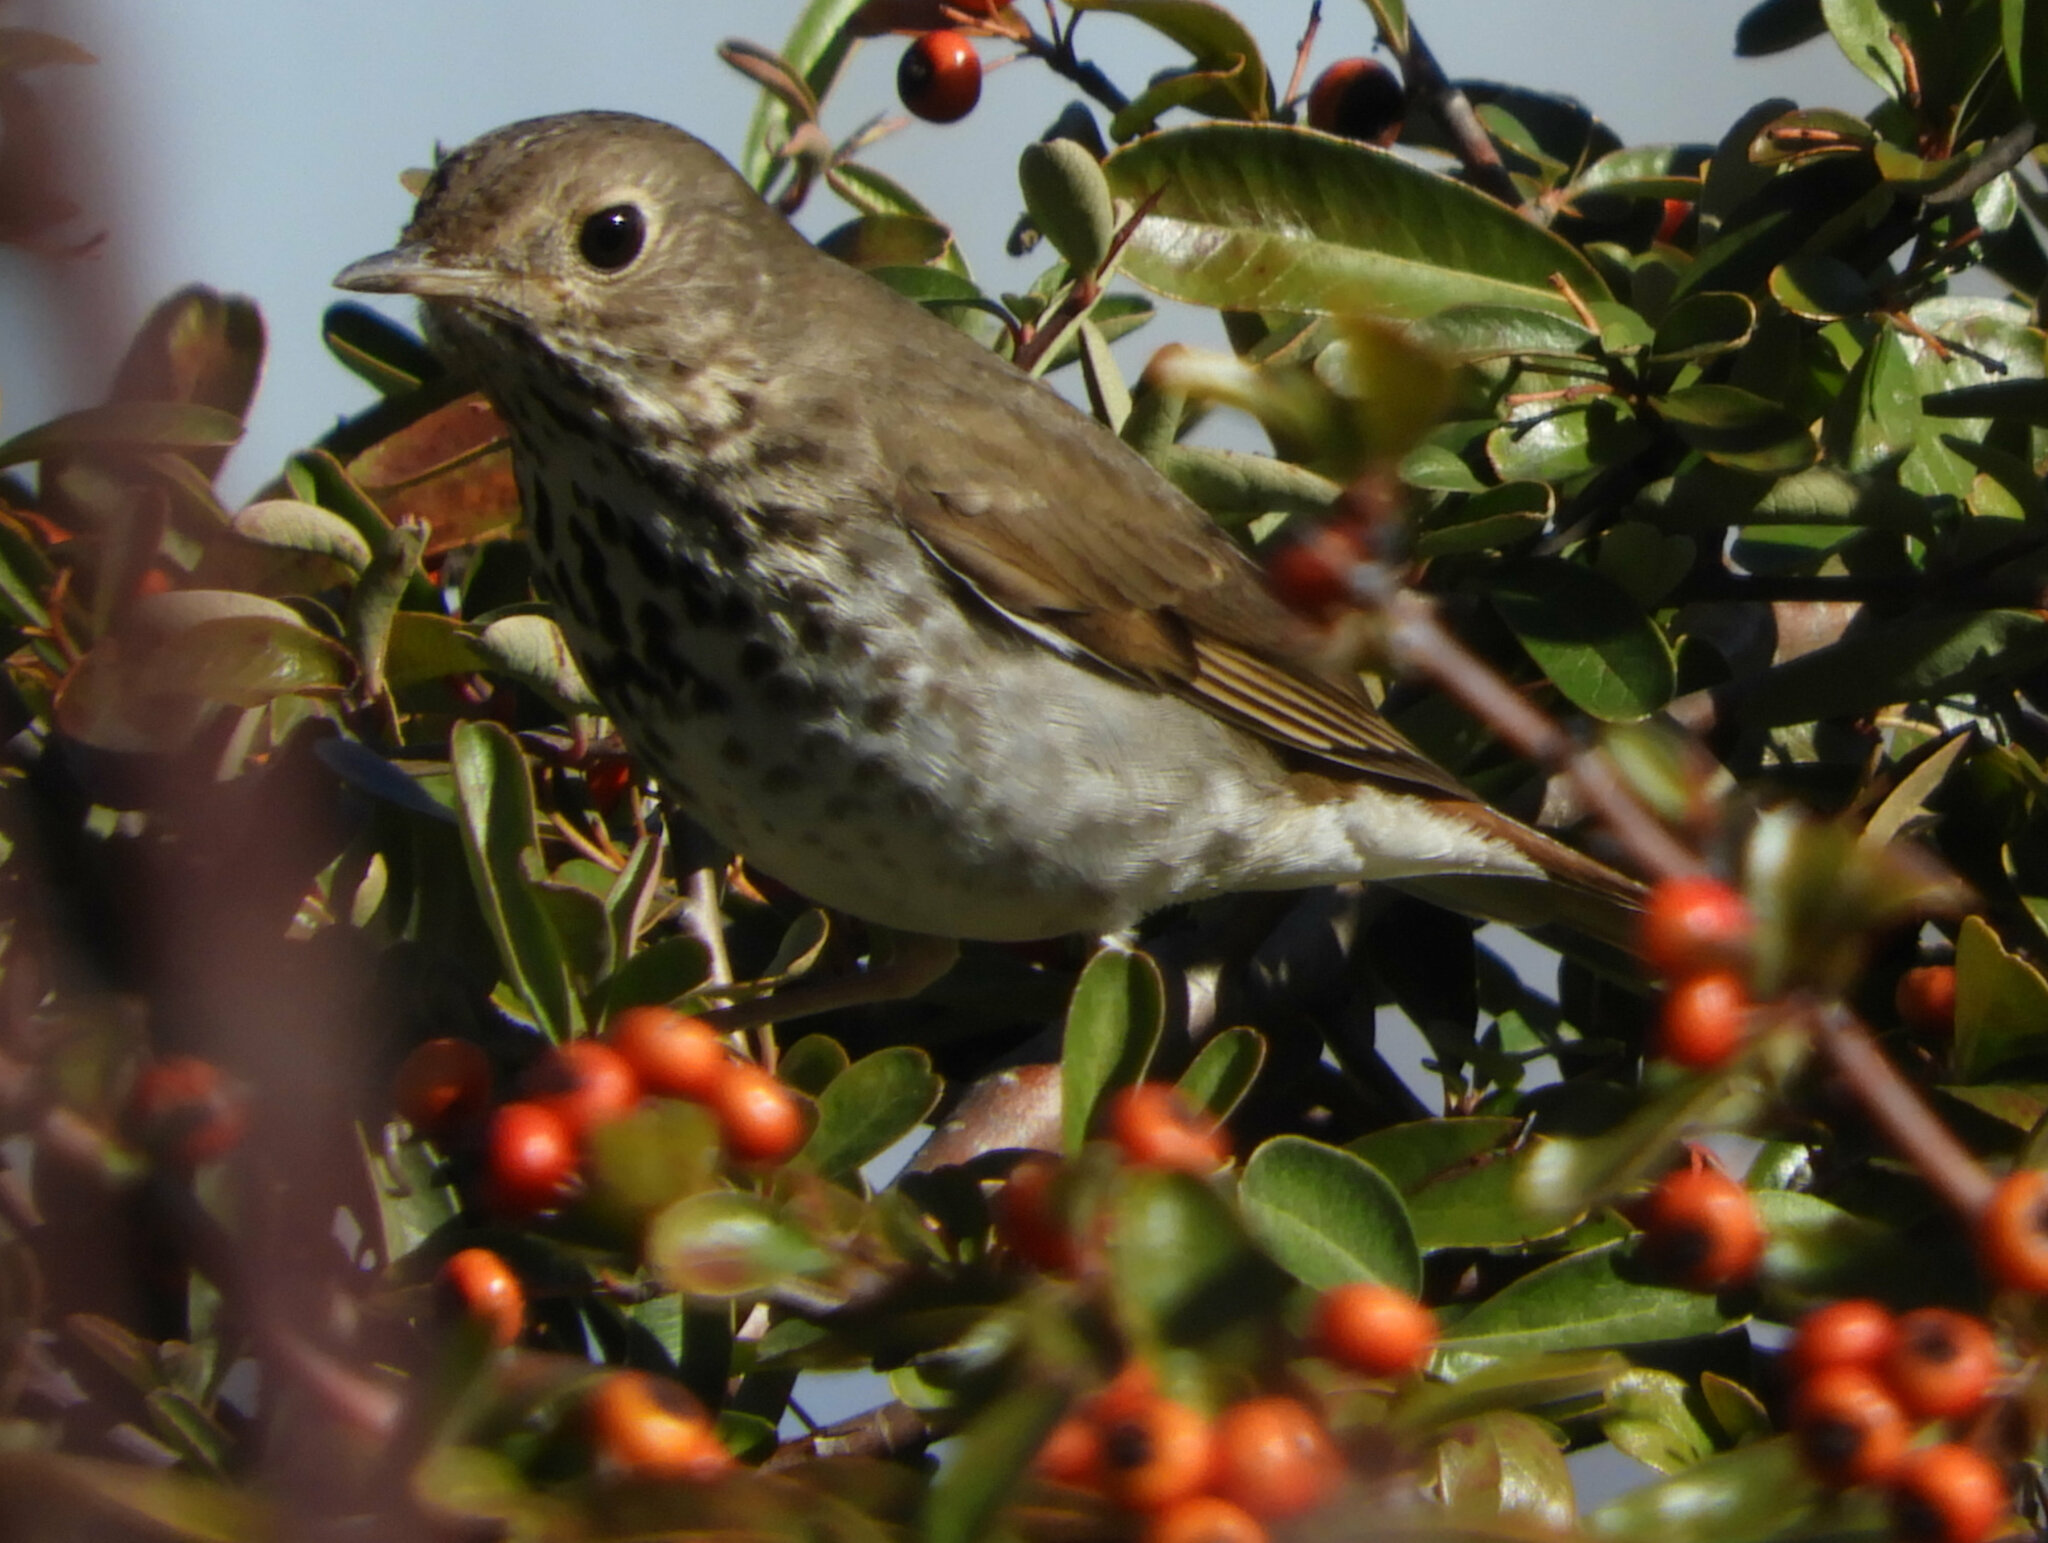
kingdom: Animalia
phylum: Chordata
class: Aves
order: Passeriformes
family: Turdidae
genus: Catharus
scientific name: Catharus guttatus
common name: Hermit thrush
